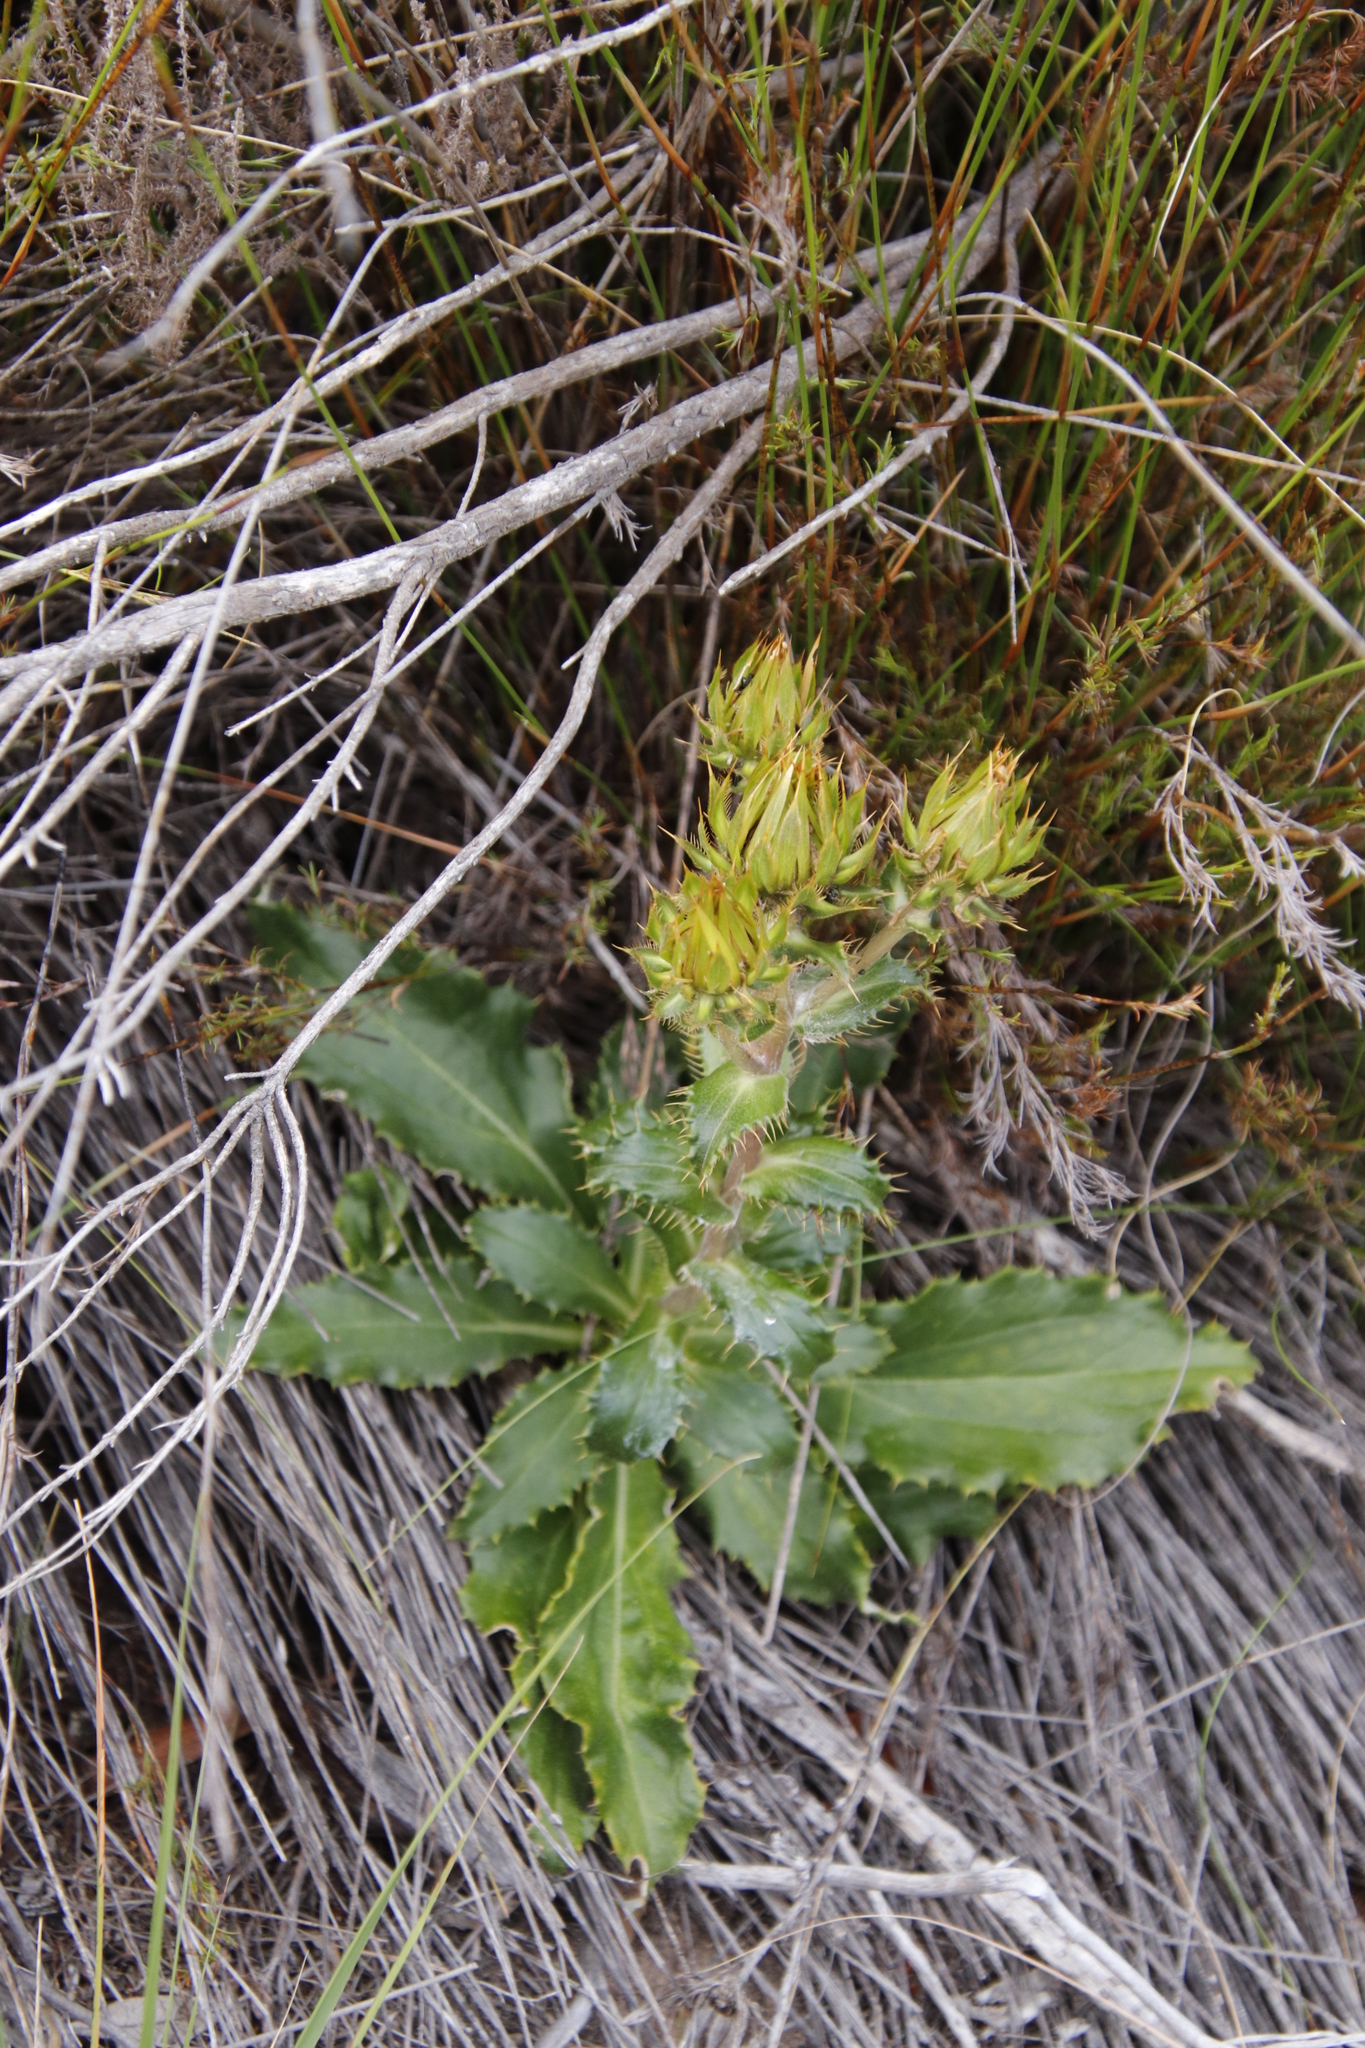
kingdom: Plantae
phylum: Tracheophyta
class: Magnoliopsida
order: Asterales
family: Asteraceae
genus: Berkheya
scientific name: Berkheya armata
